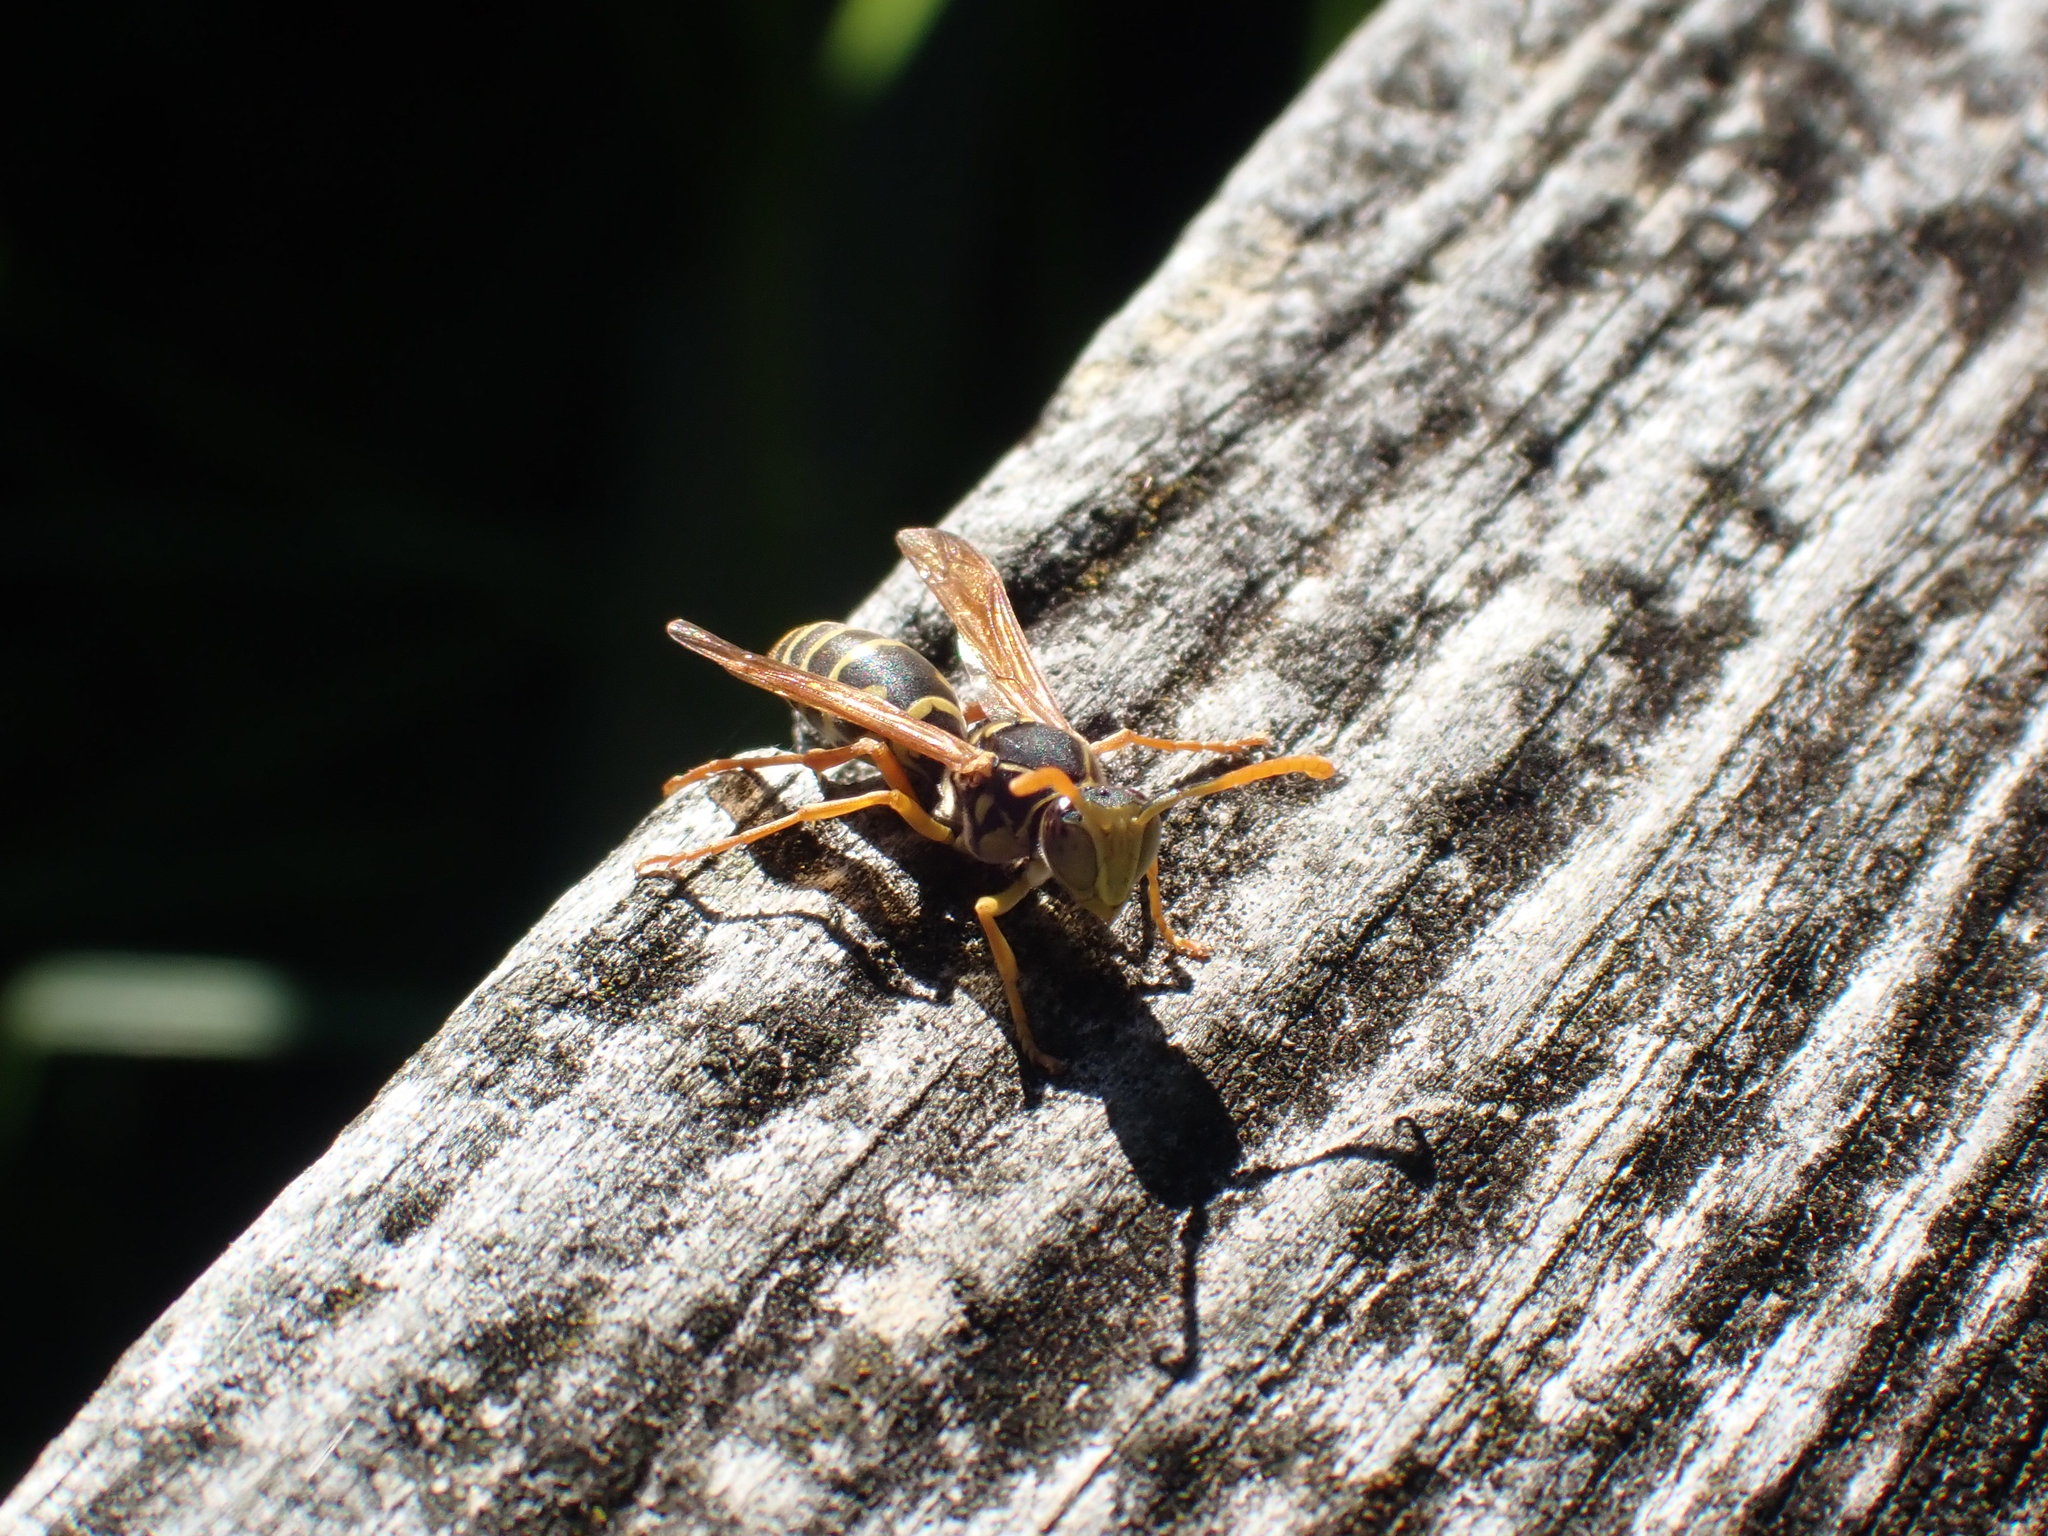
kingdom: Animalia
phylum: Arthropoda
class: Insecta
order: Hymenoptera
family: Eumenidae
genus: Polistes
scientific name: Polistes chinensis
